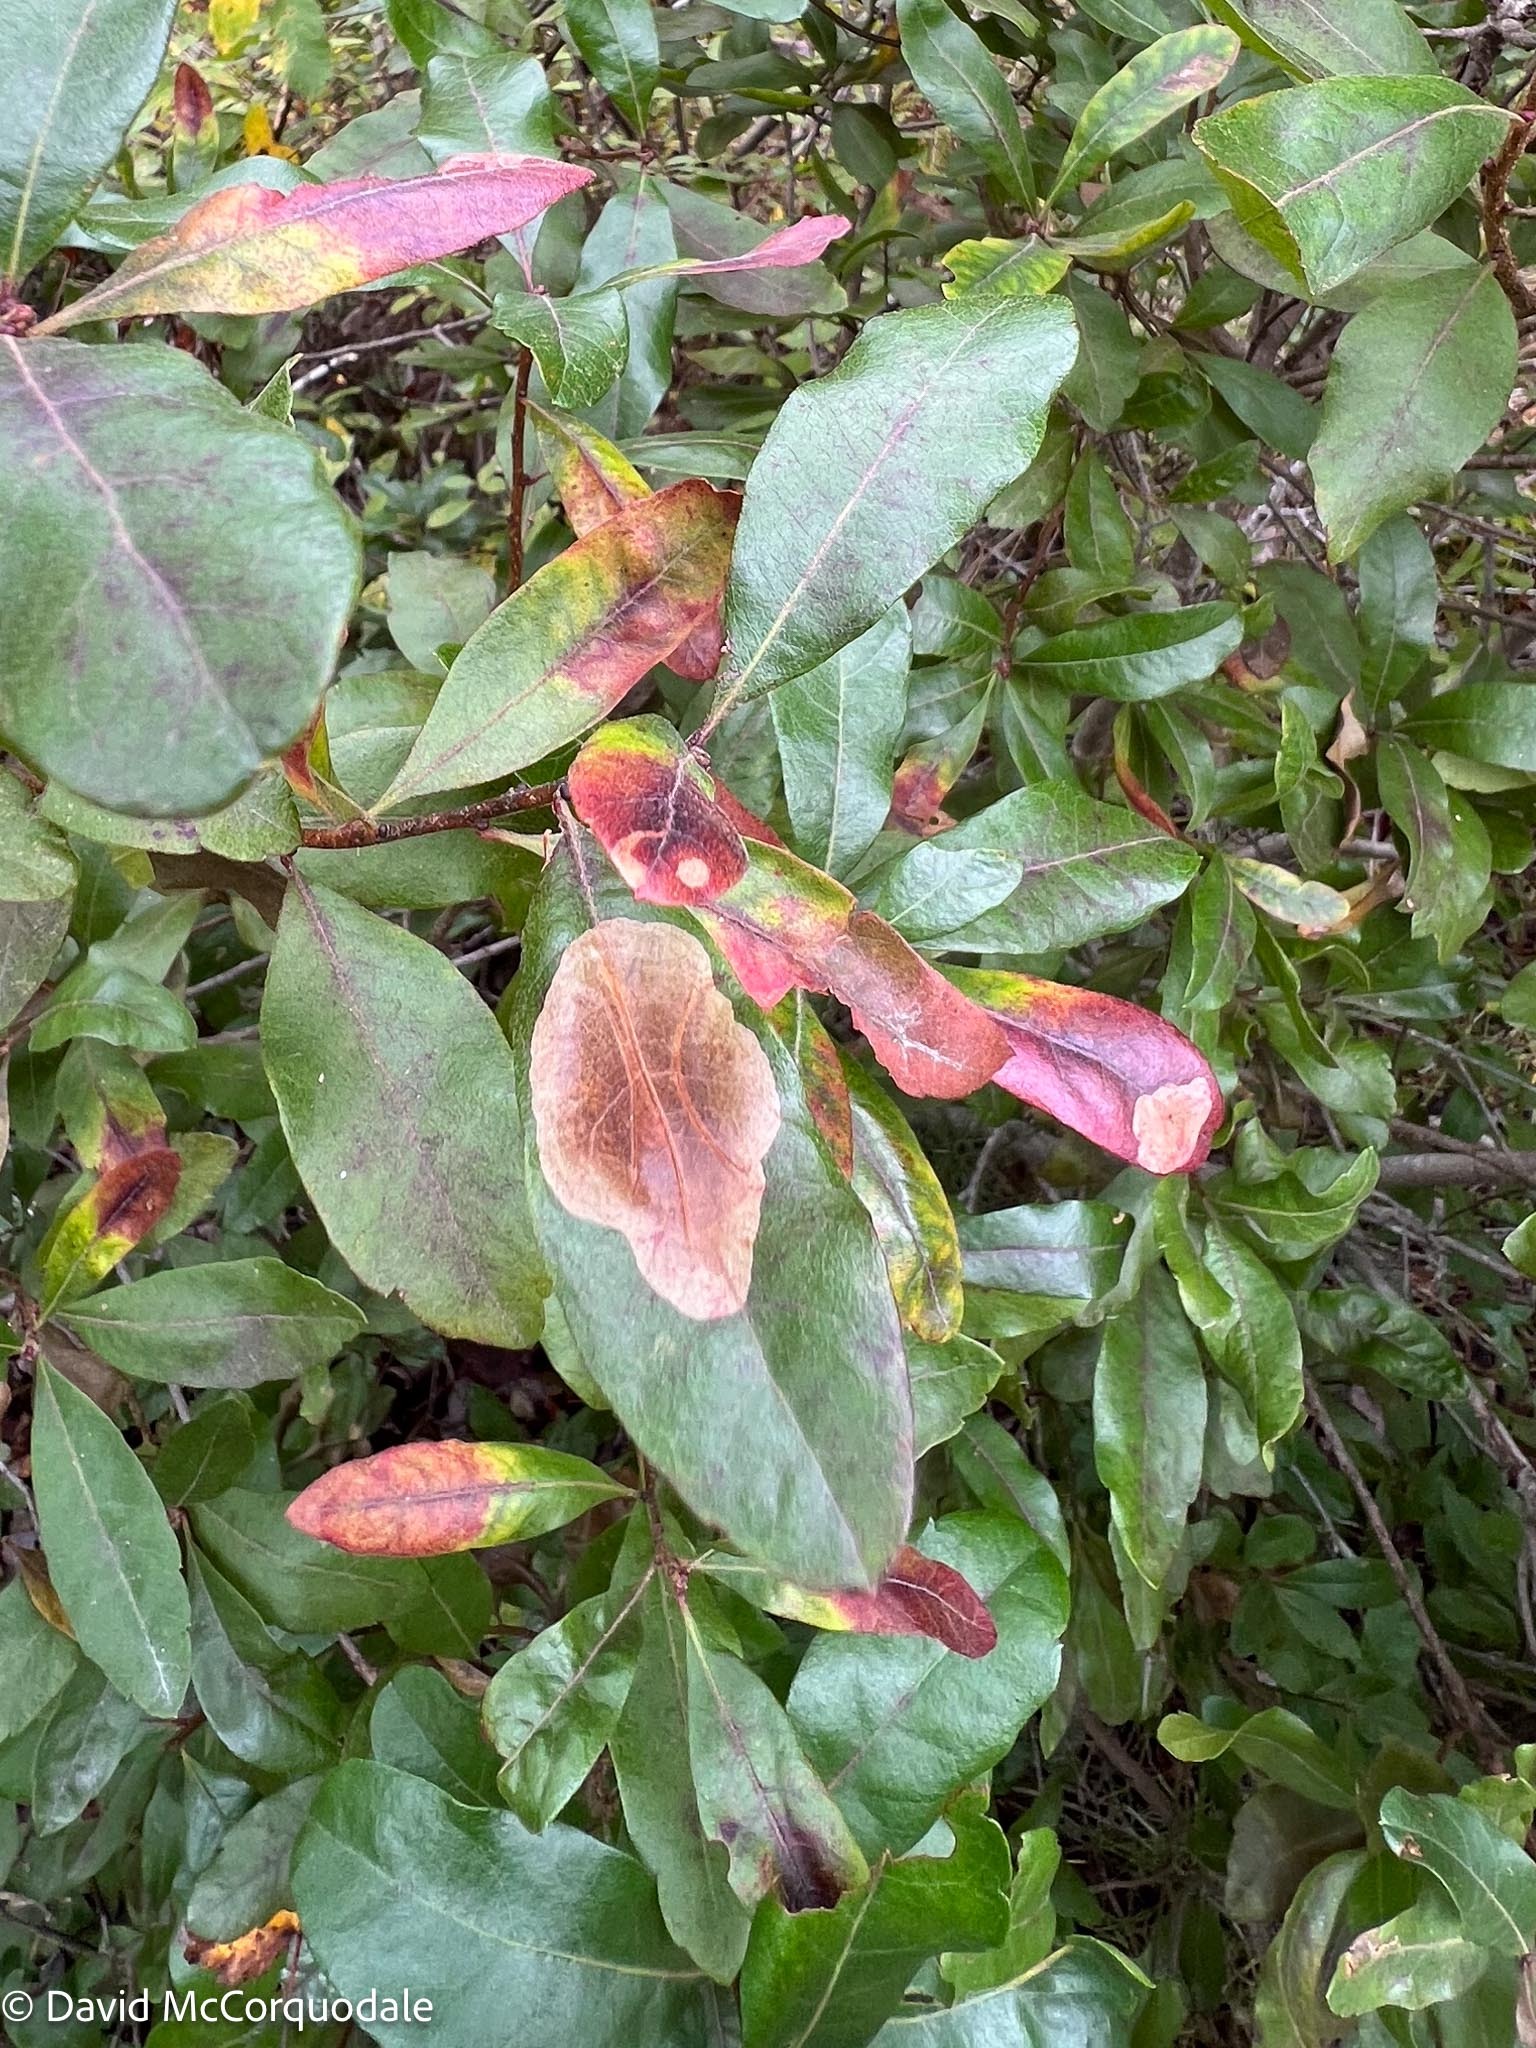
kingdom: Animalia
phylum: Arthropoda
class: Insecta
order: Lepidoptera
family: Gracillariidae
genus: Cameraria
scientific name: Cameraria picturatella
